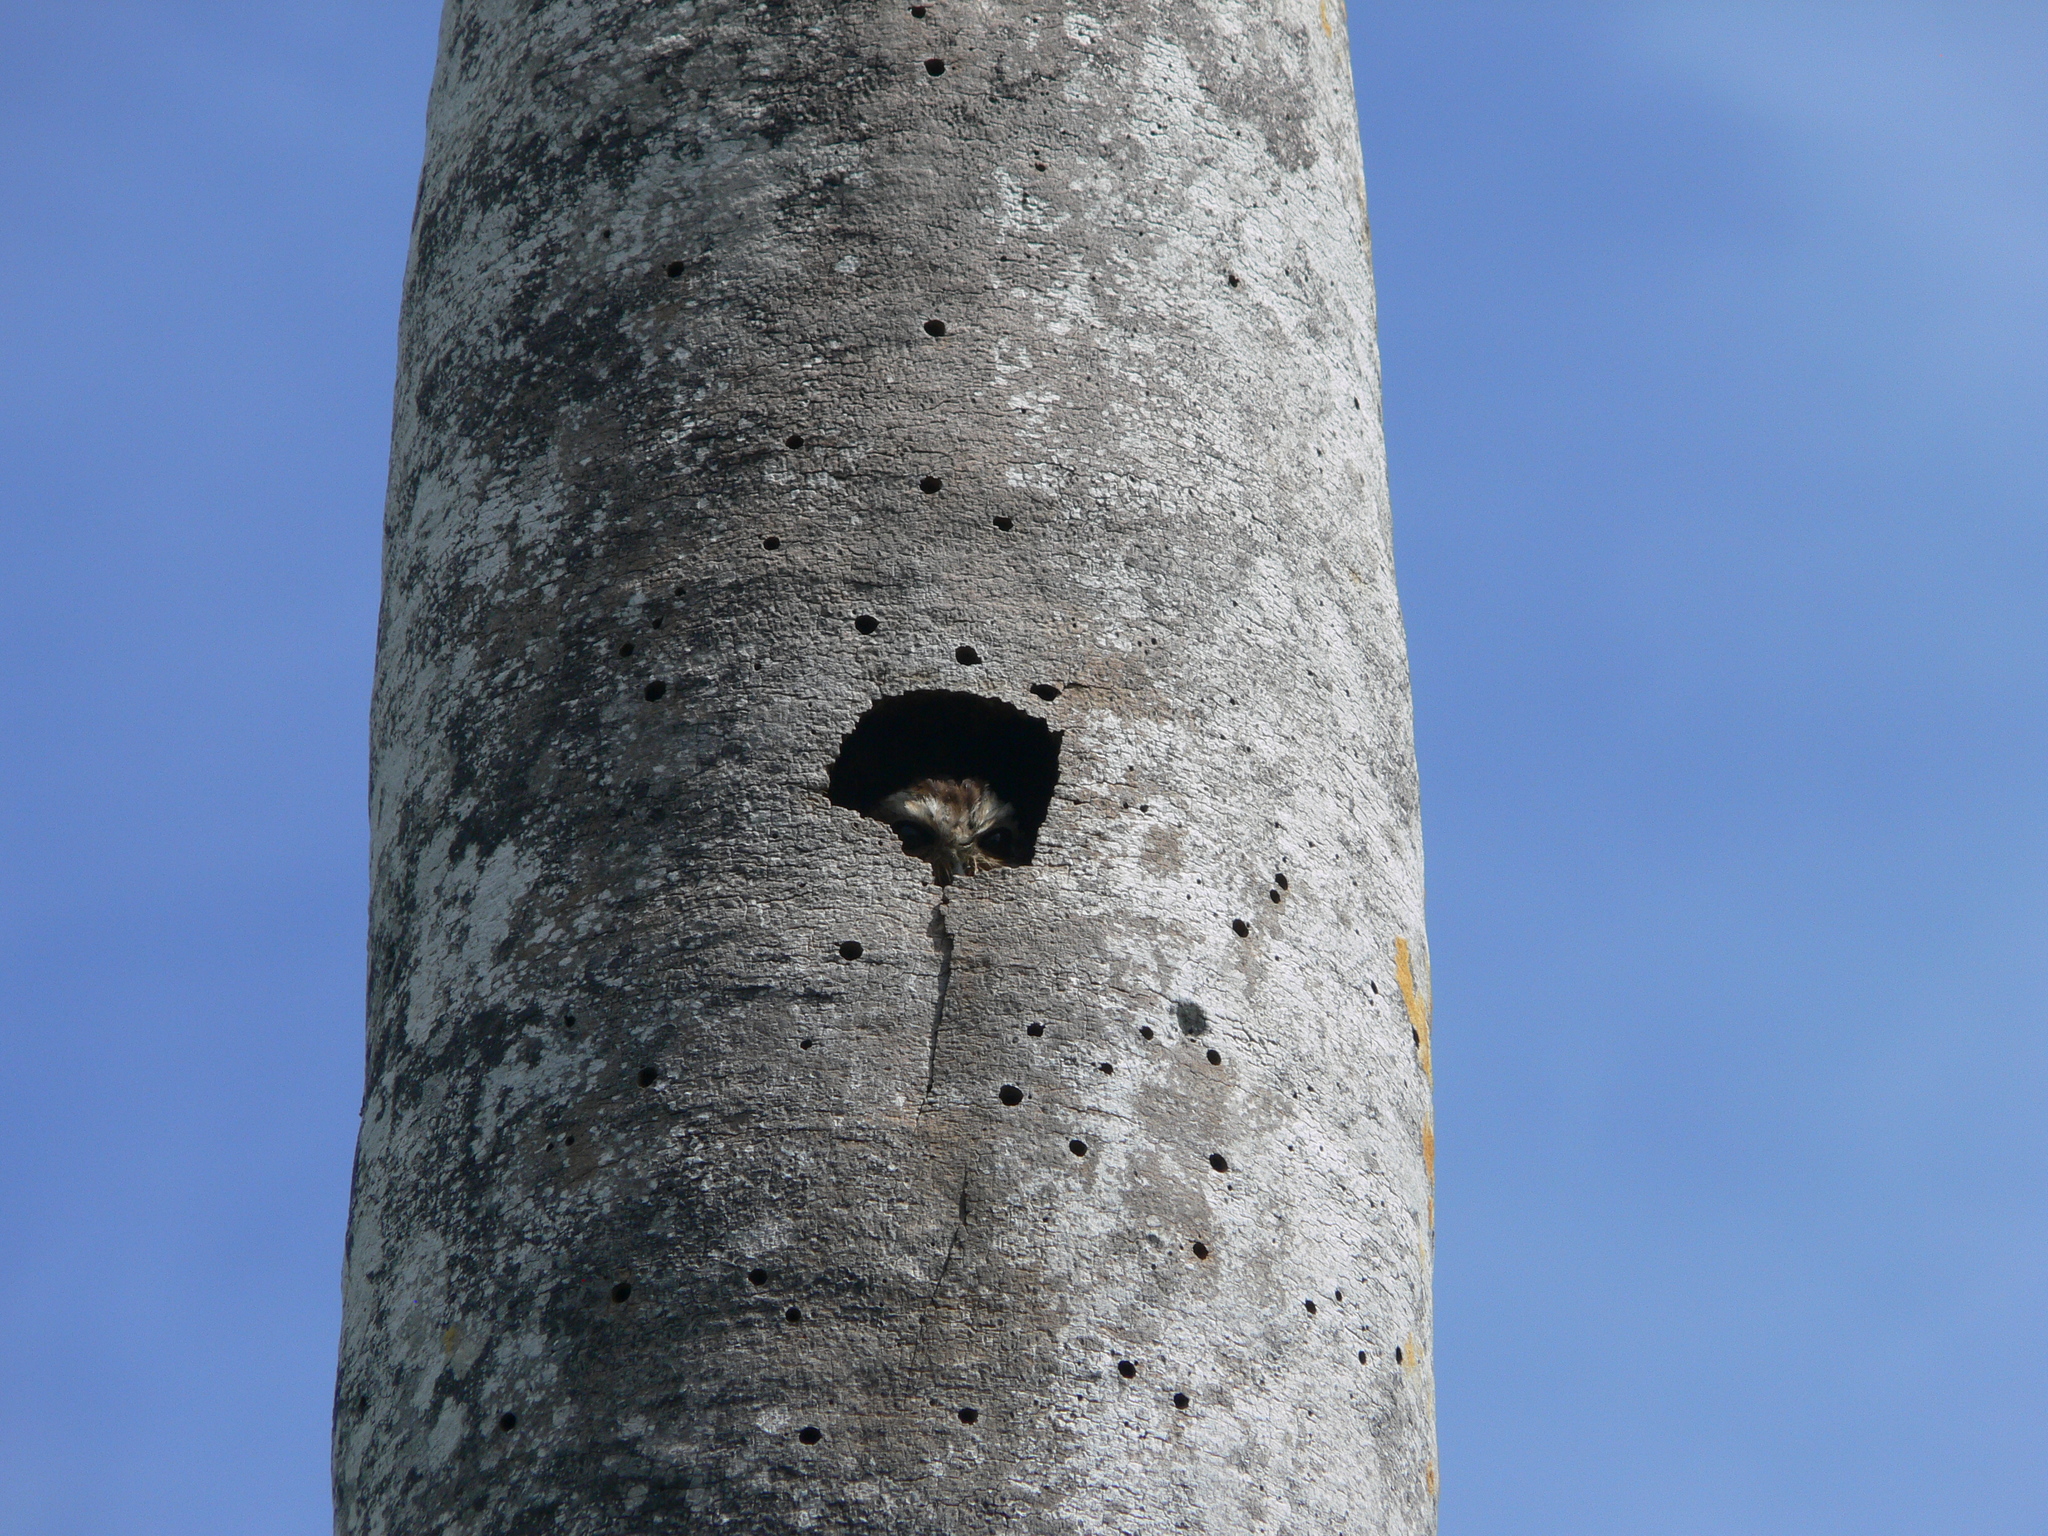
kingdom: Animalia
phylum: Chordata
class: Aves
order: Strigiformes
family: Strigidae
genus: Margarobyas
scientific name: Margarobyas lawrencii
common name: Bare-legged owl
